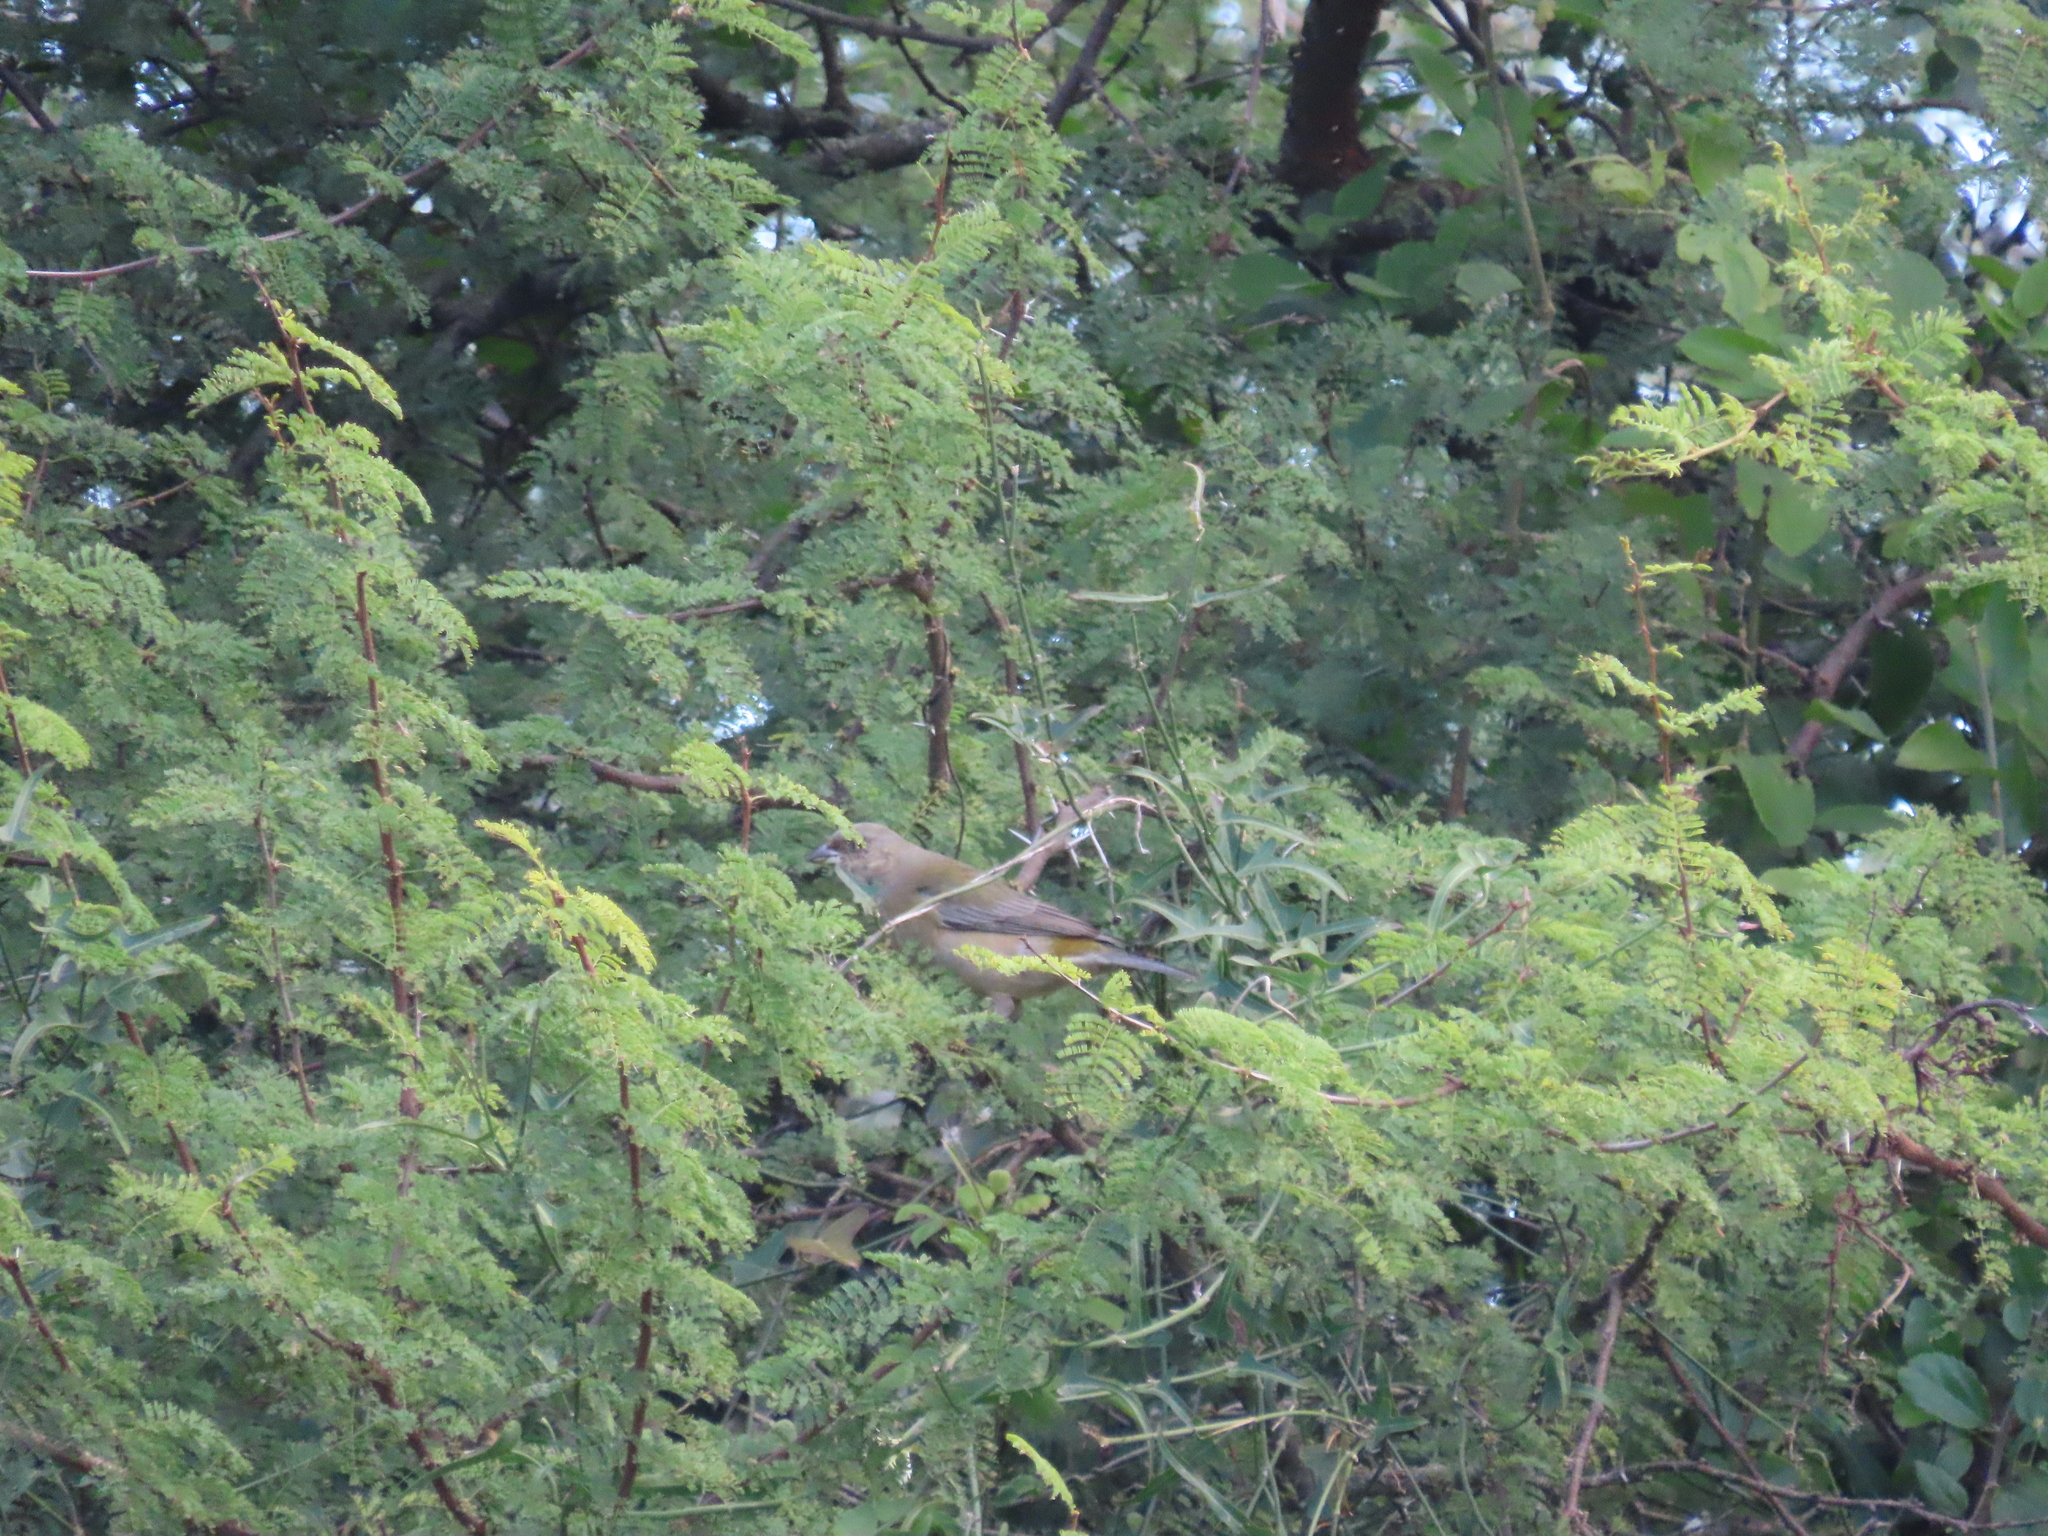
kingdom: Animalia
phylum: Chordata
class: Aves
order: Passeriformes
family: Thraupidae
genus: Rauenia
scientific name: Rauenia bonariensis
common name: Blue-and-yellow tanager
